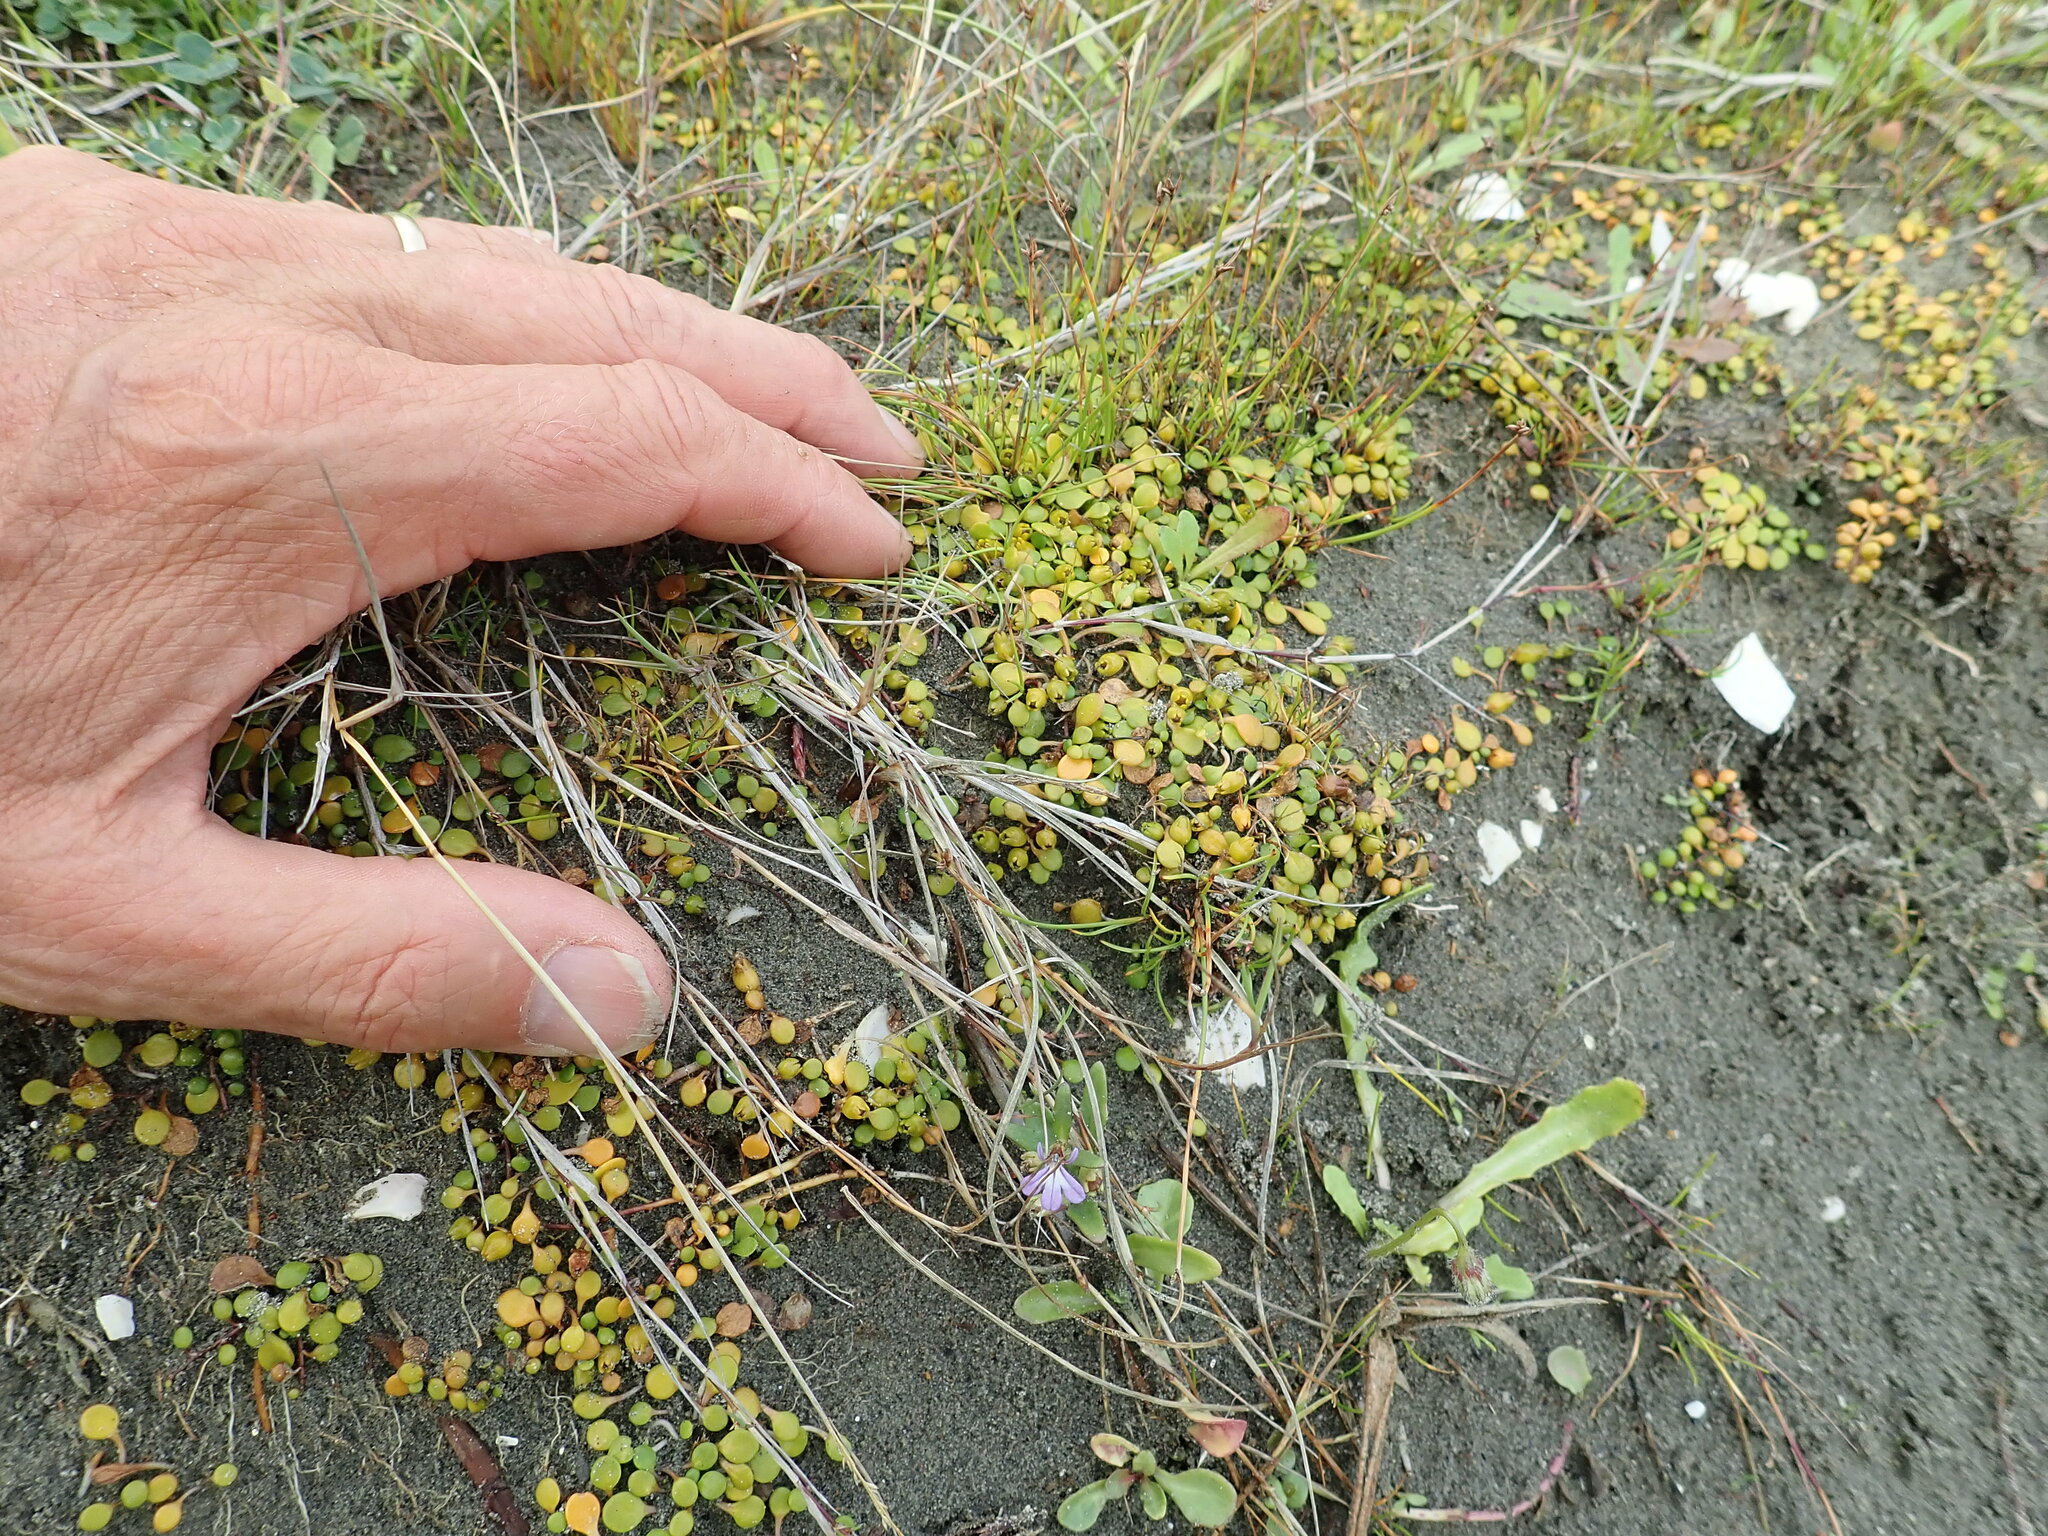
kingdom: Plantae
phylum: Tracheophyta
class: Magnoliopsida
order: Asterales
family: Goodeniaceae
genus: Goodenia
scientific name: Goodenia heenanii
